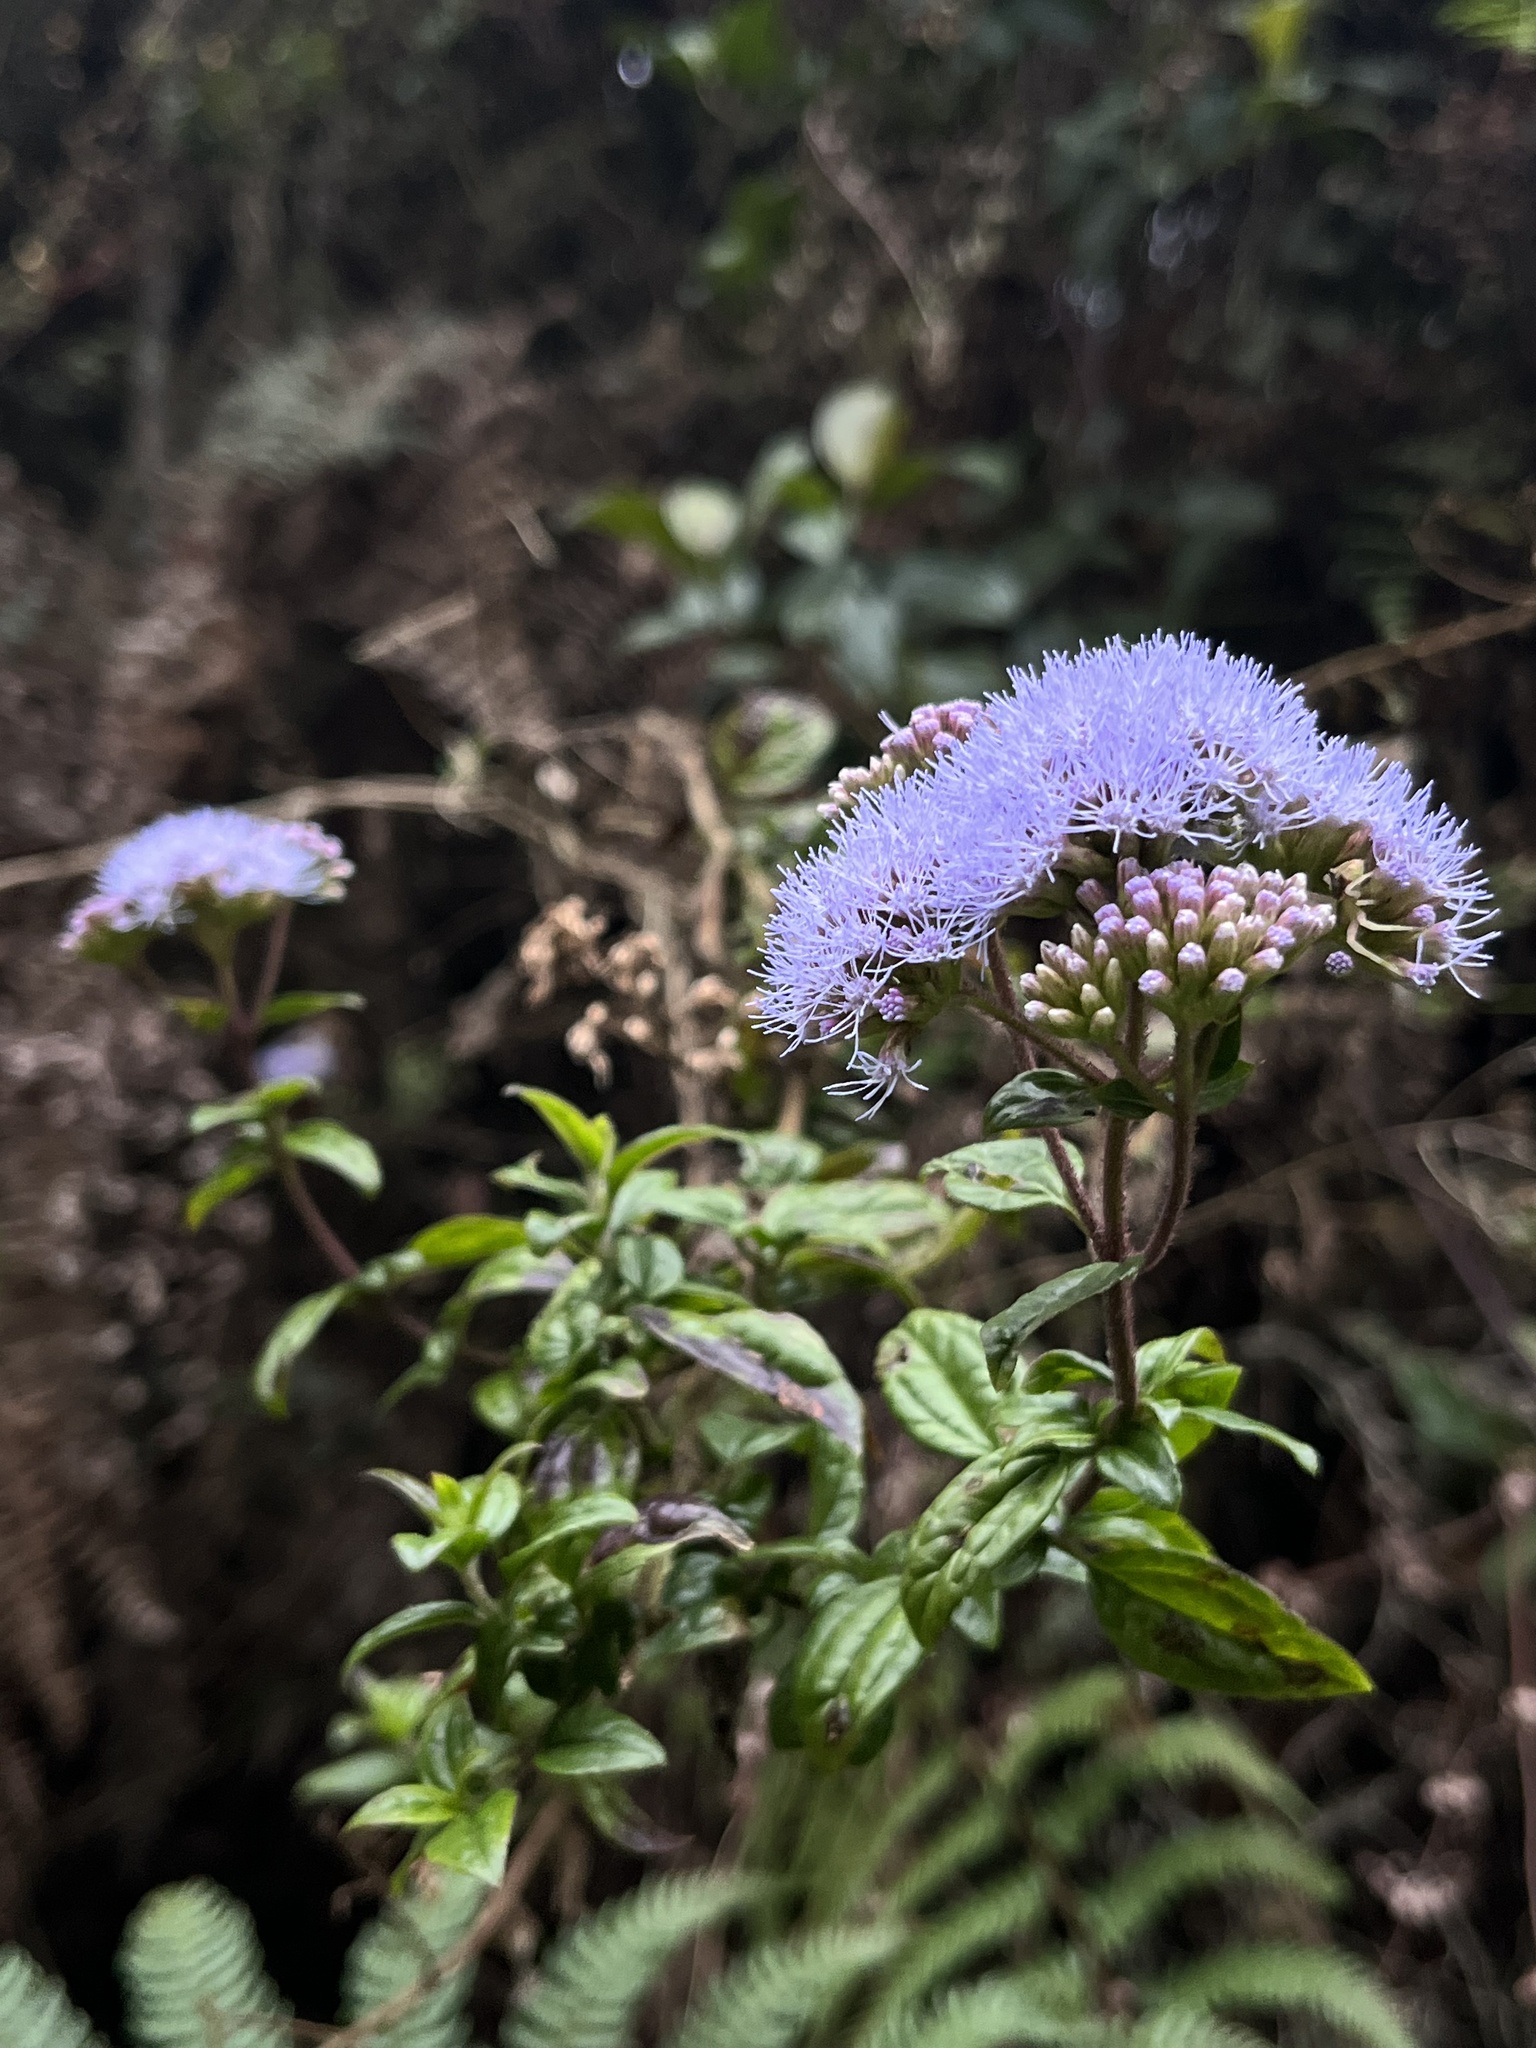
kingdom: Plantae
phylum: Tracheophyta
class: Magnoliopsida
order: Asterales
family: Asteraceae
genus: Asplundianthus
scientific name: Asplundianthus arcuans
